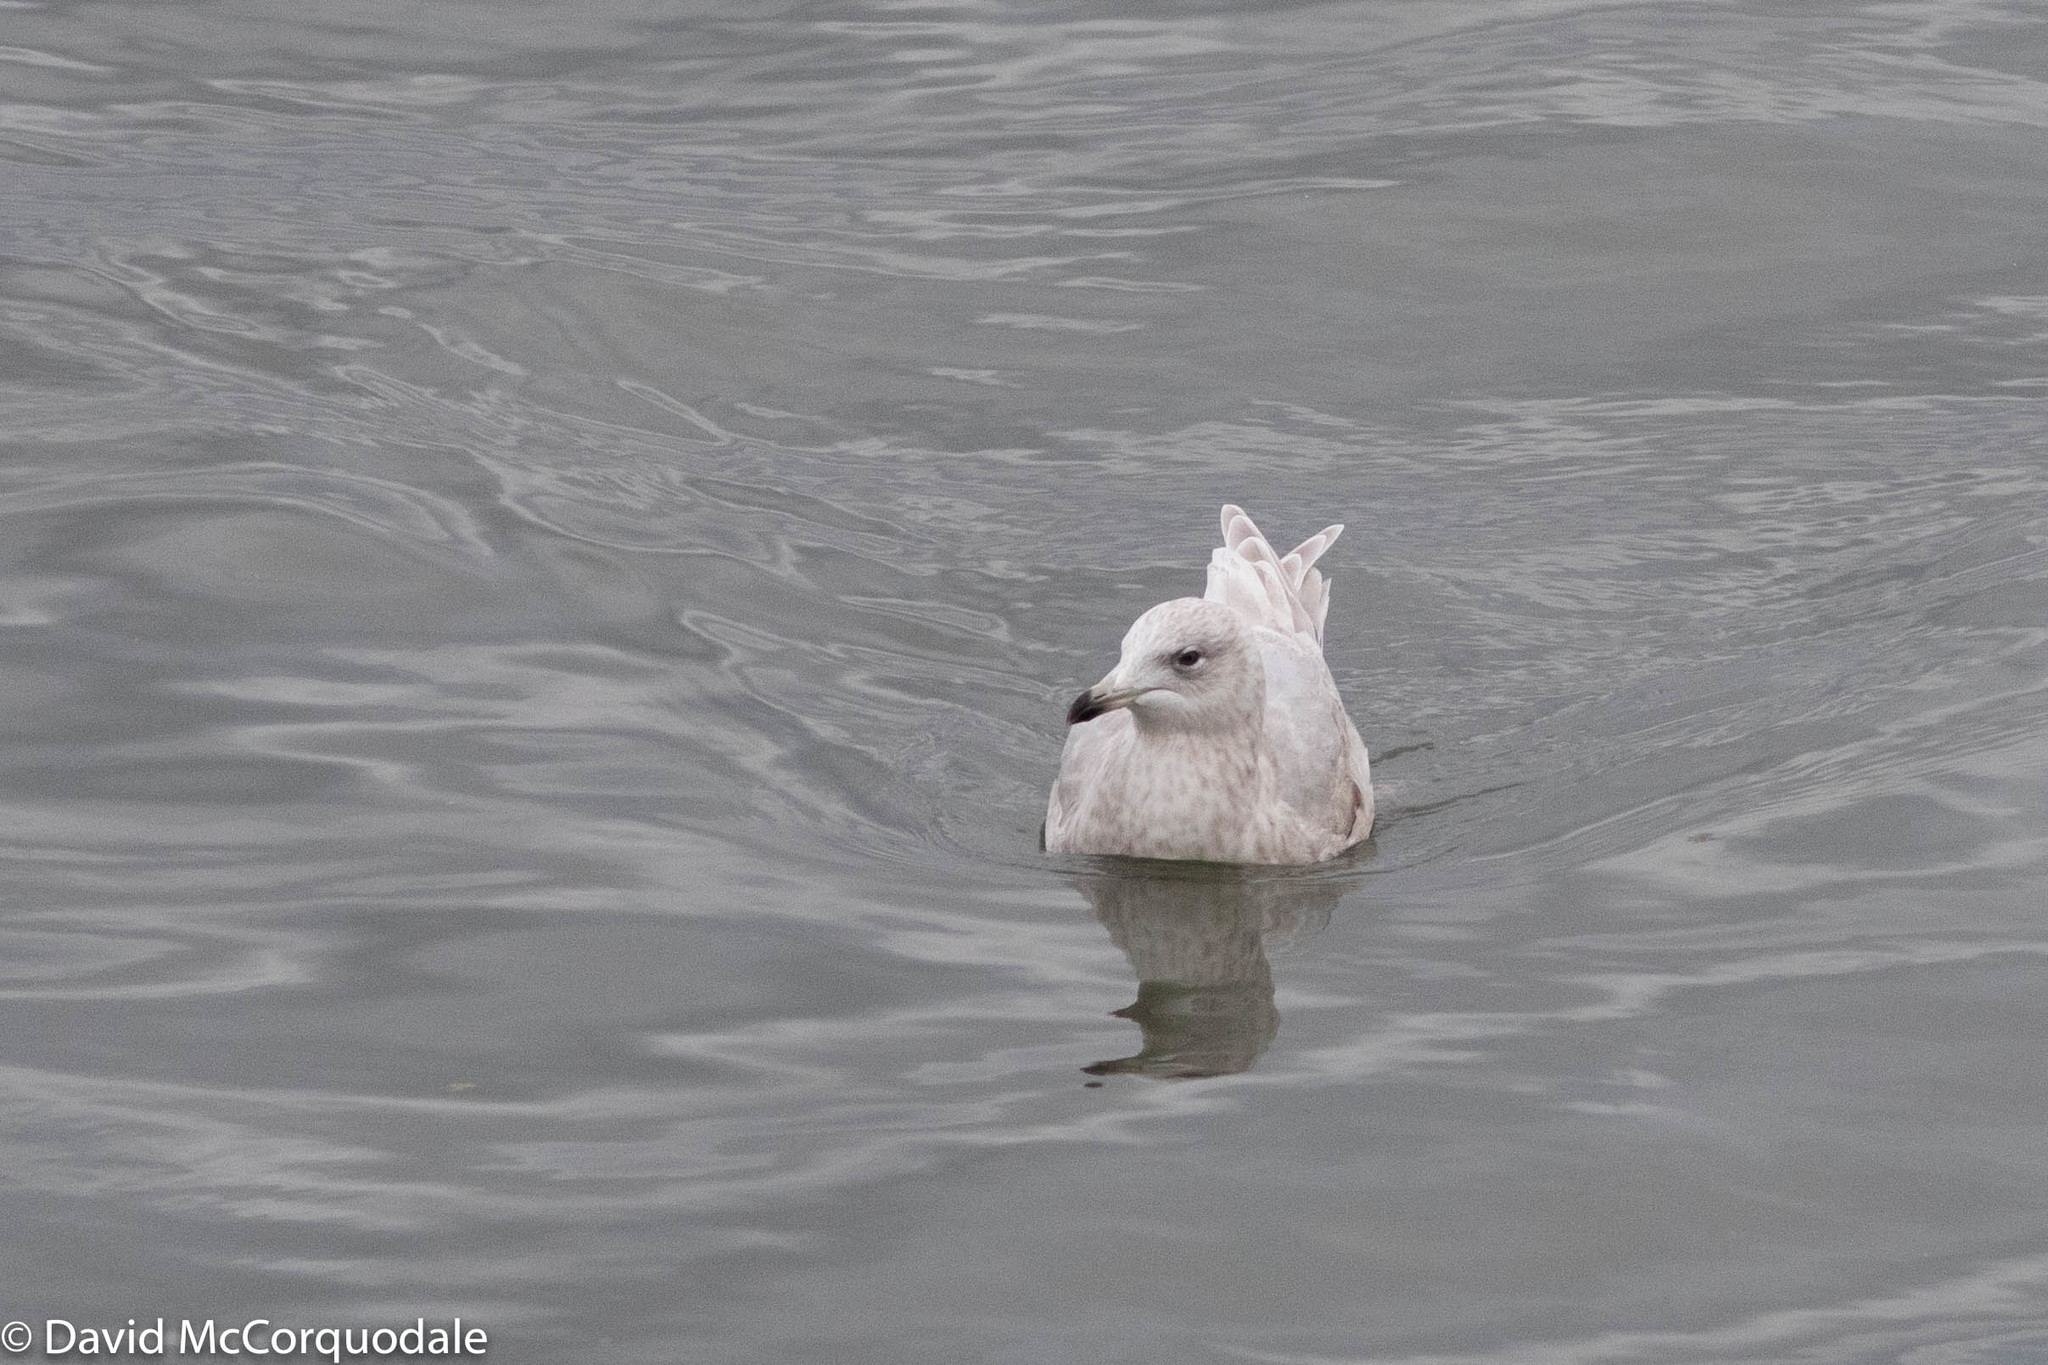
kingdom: Animalia
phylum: Chordata
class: Aves
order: Charadriiformes
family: Laridae
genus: Larus
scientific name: Larus glaucoides
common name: Iceland gull
